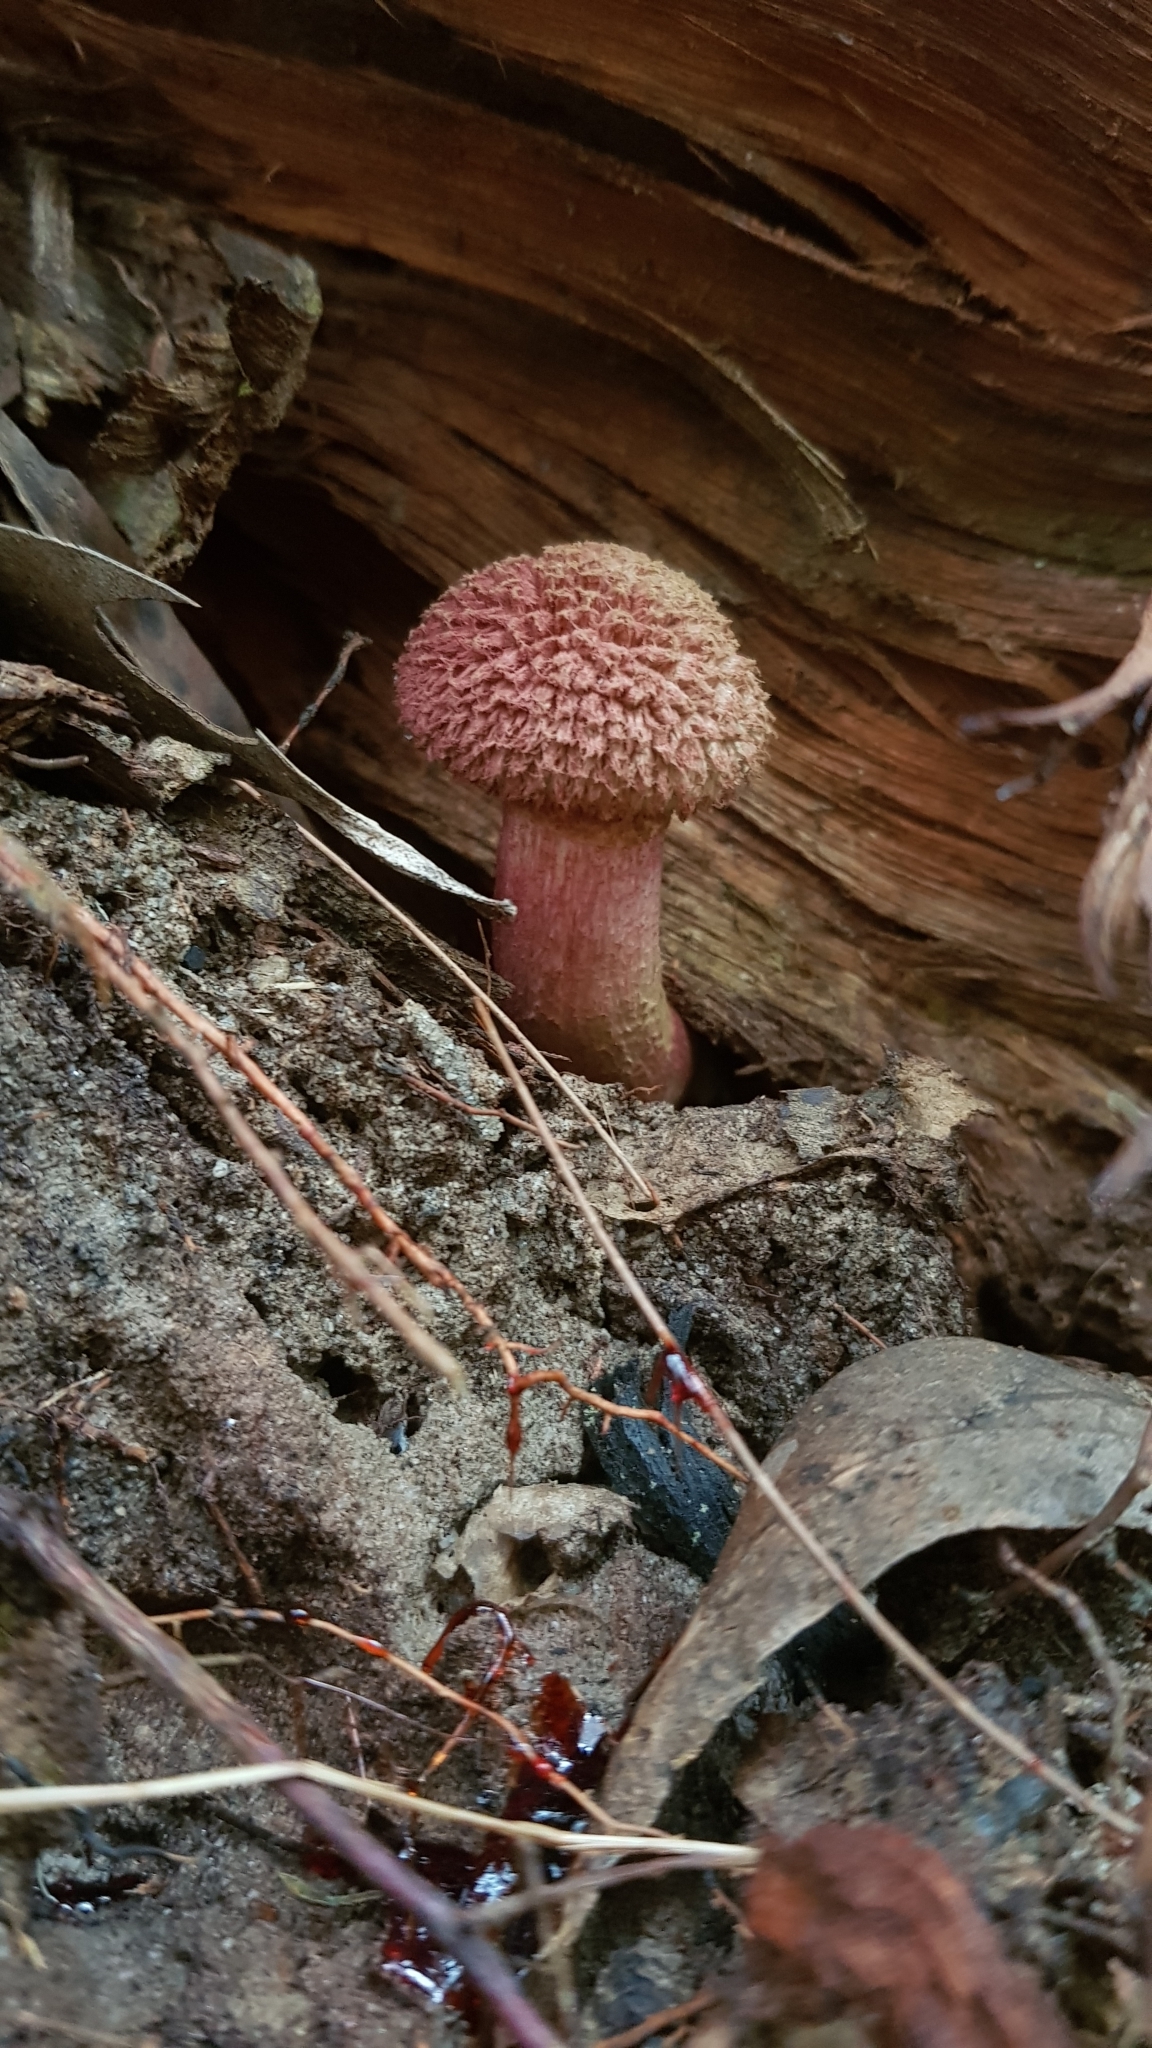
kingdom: Fungi
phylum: Basidiomycota
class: Agaricomycetes
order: Boletales
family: Boletaceae
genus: Boletellus
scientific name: Boletellus emodensis
